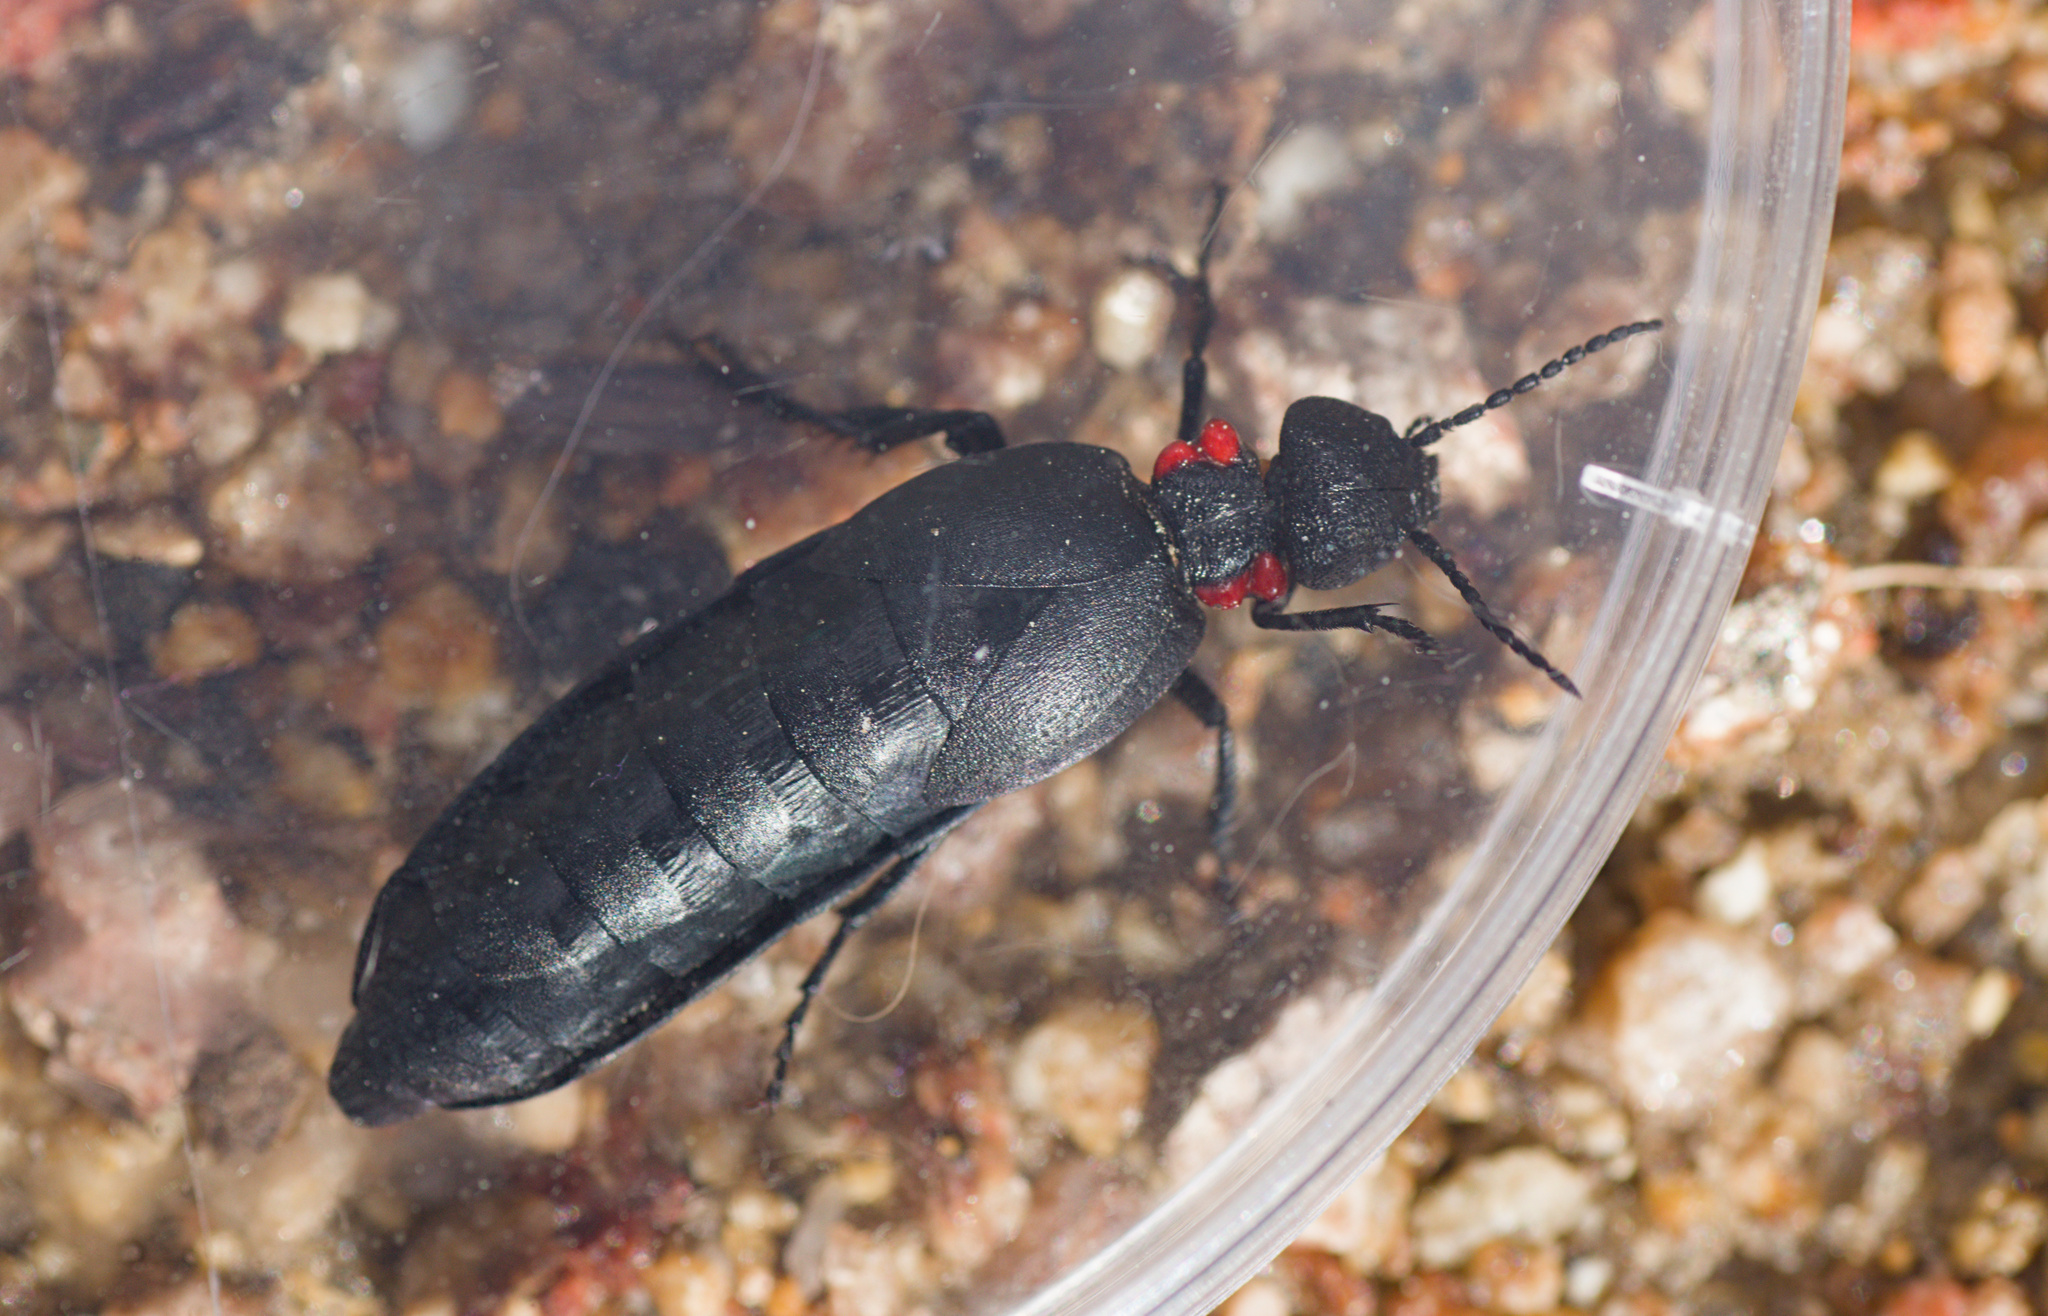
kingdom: Animalia
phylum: Arthropoda
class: Insecta
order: Coleoptera
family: Meloidae
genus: Physomeloe
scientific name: Physomeloe corallifer
